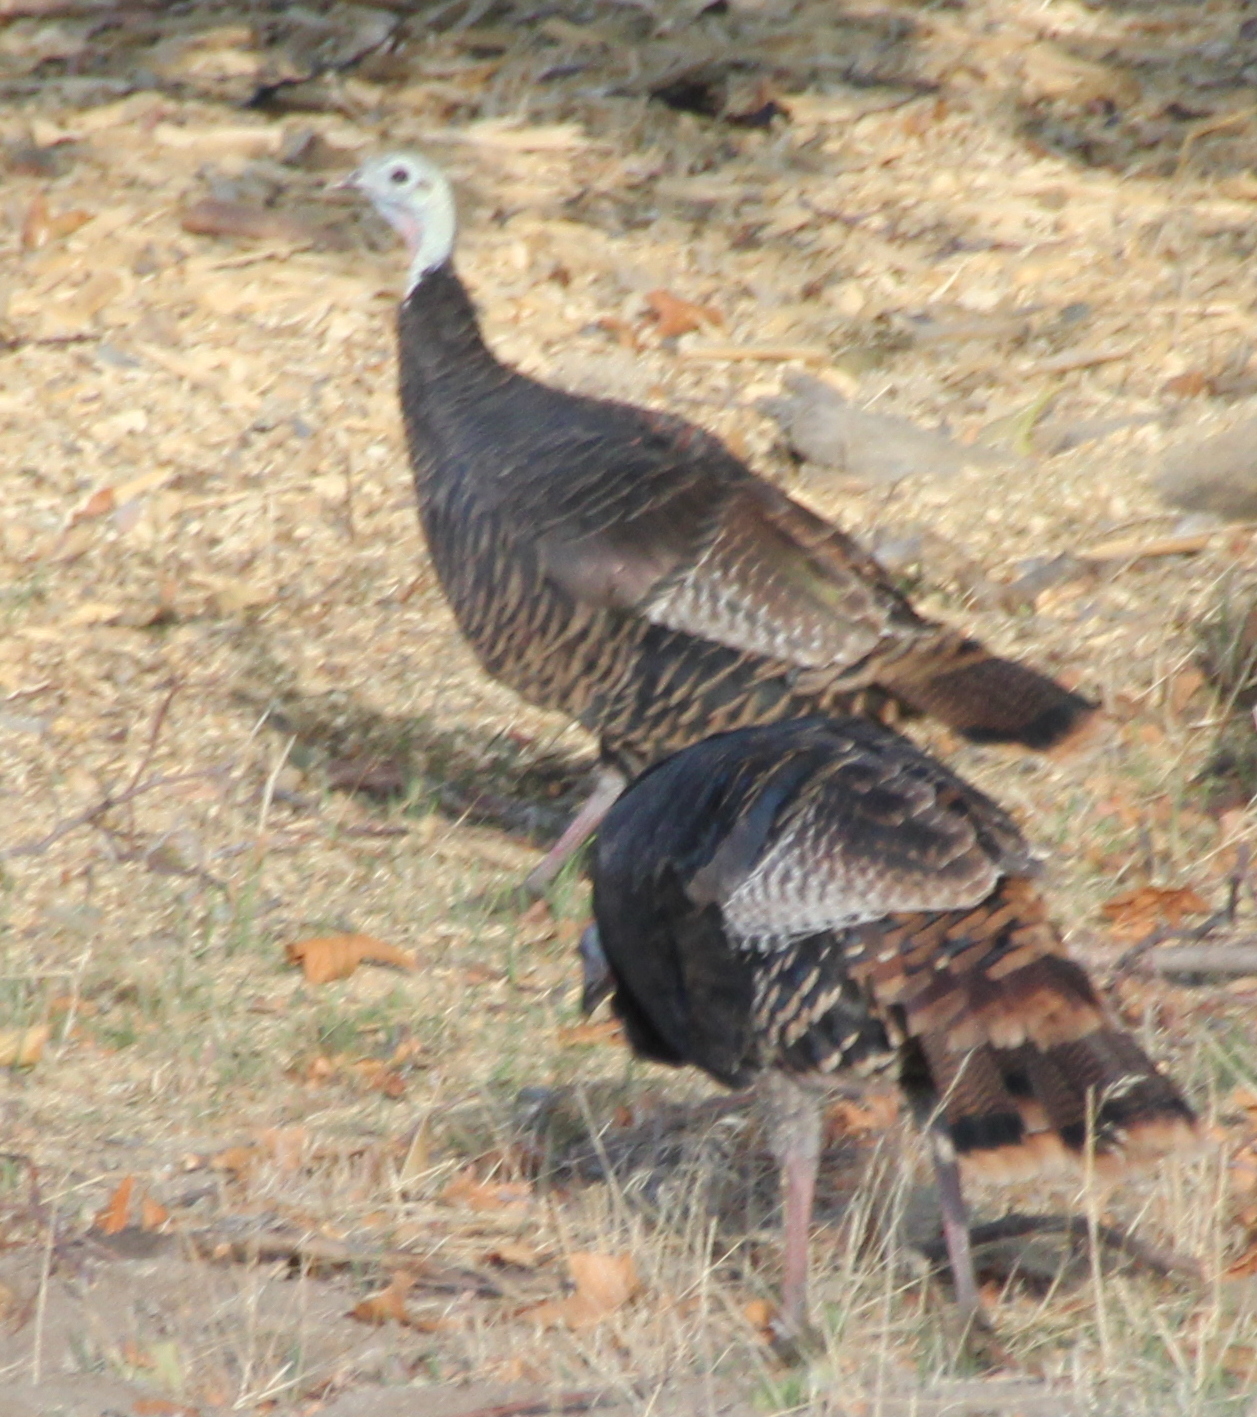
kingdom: Animalia
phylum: Chordata
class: Aves
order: Galliformes
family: Phasianidae
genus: Meleagris
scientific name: Meleagris gallopavo
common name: Wild turkey
